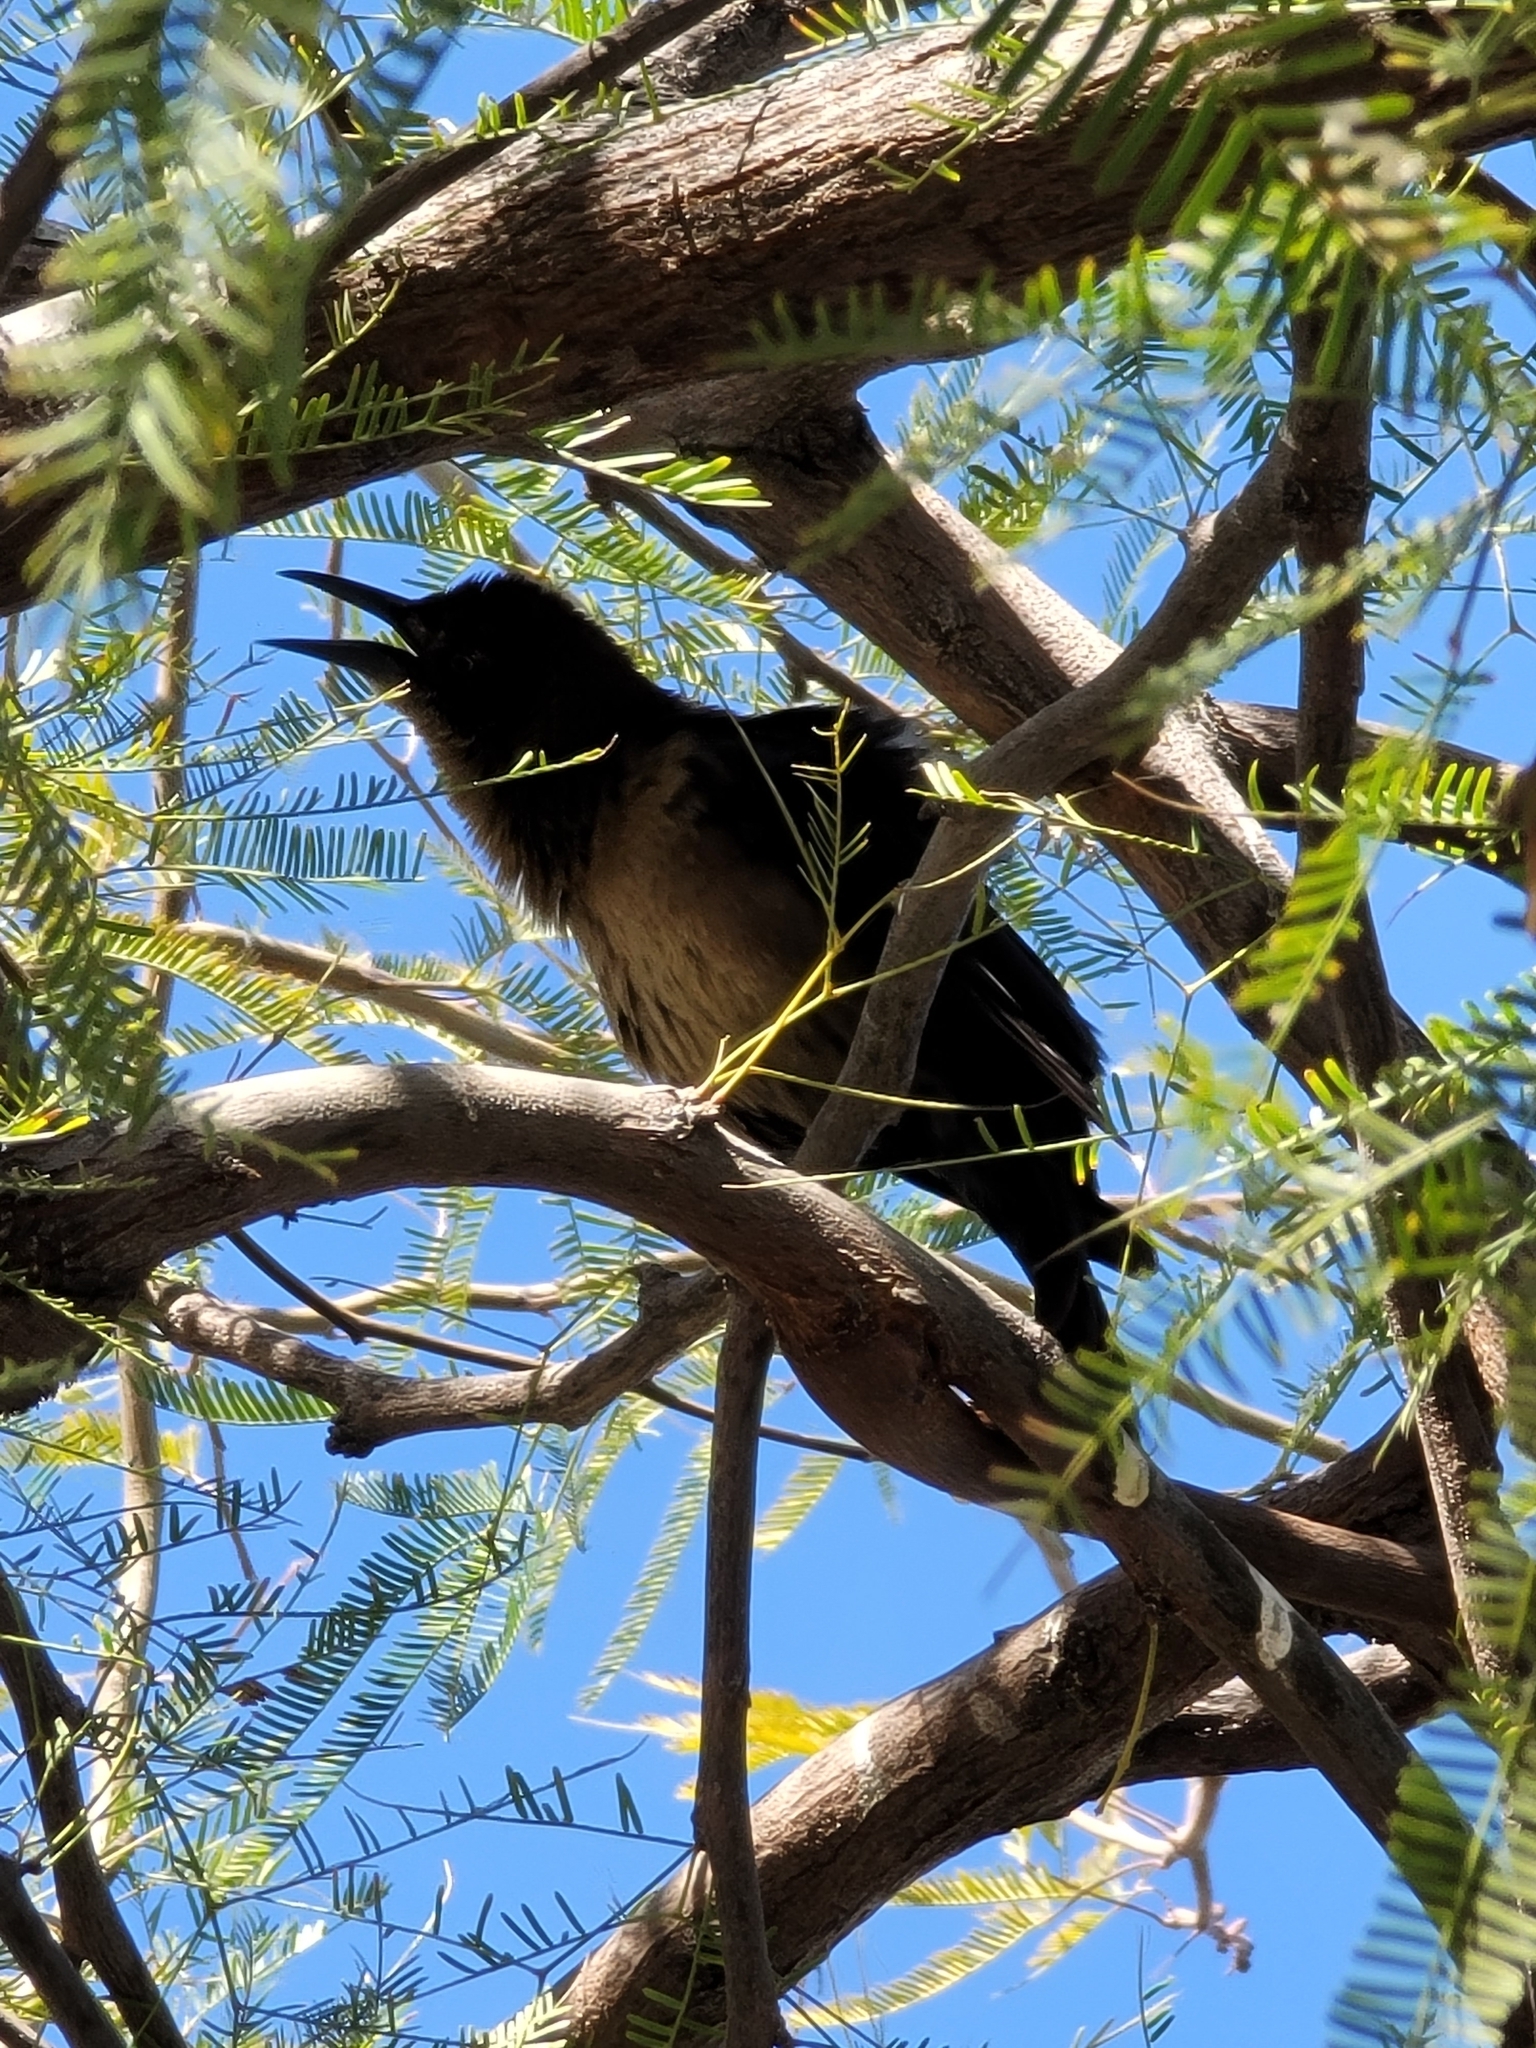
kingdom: Animalia
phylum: Chordata
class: Aves
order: Passeriformes
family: Icteridae
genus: Quiscalus
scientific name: Quiscalus mexicanus
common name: Great-tailed grackle
